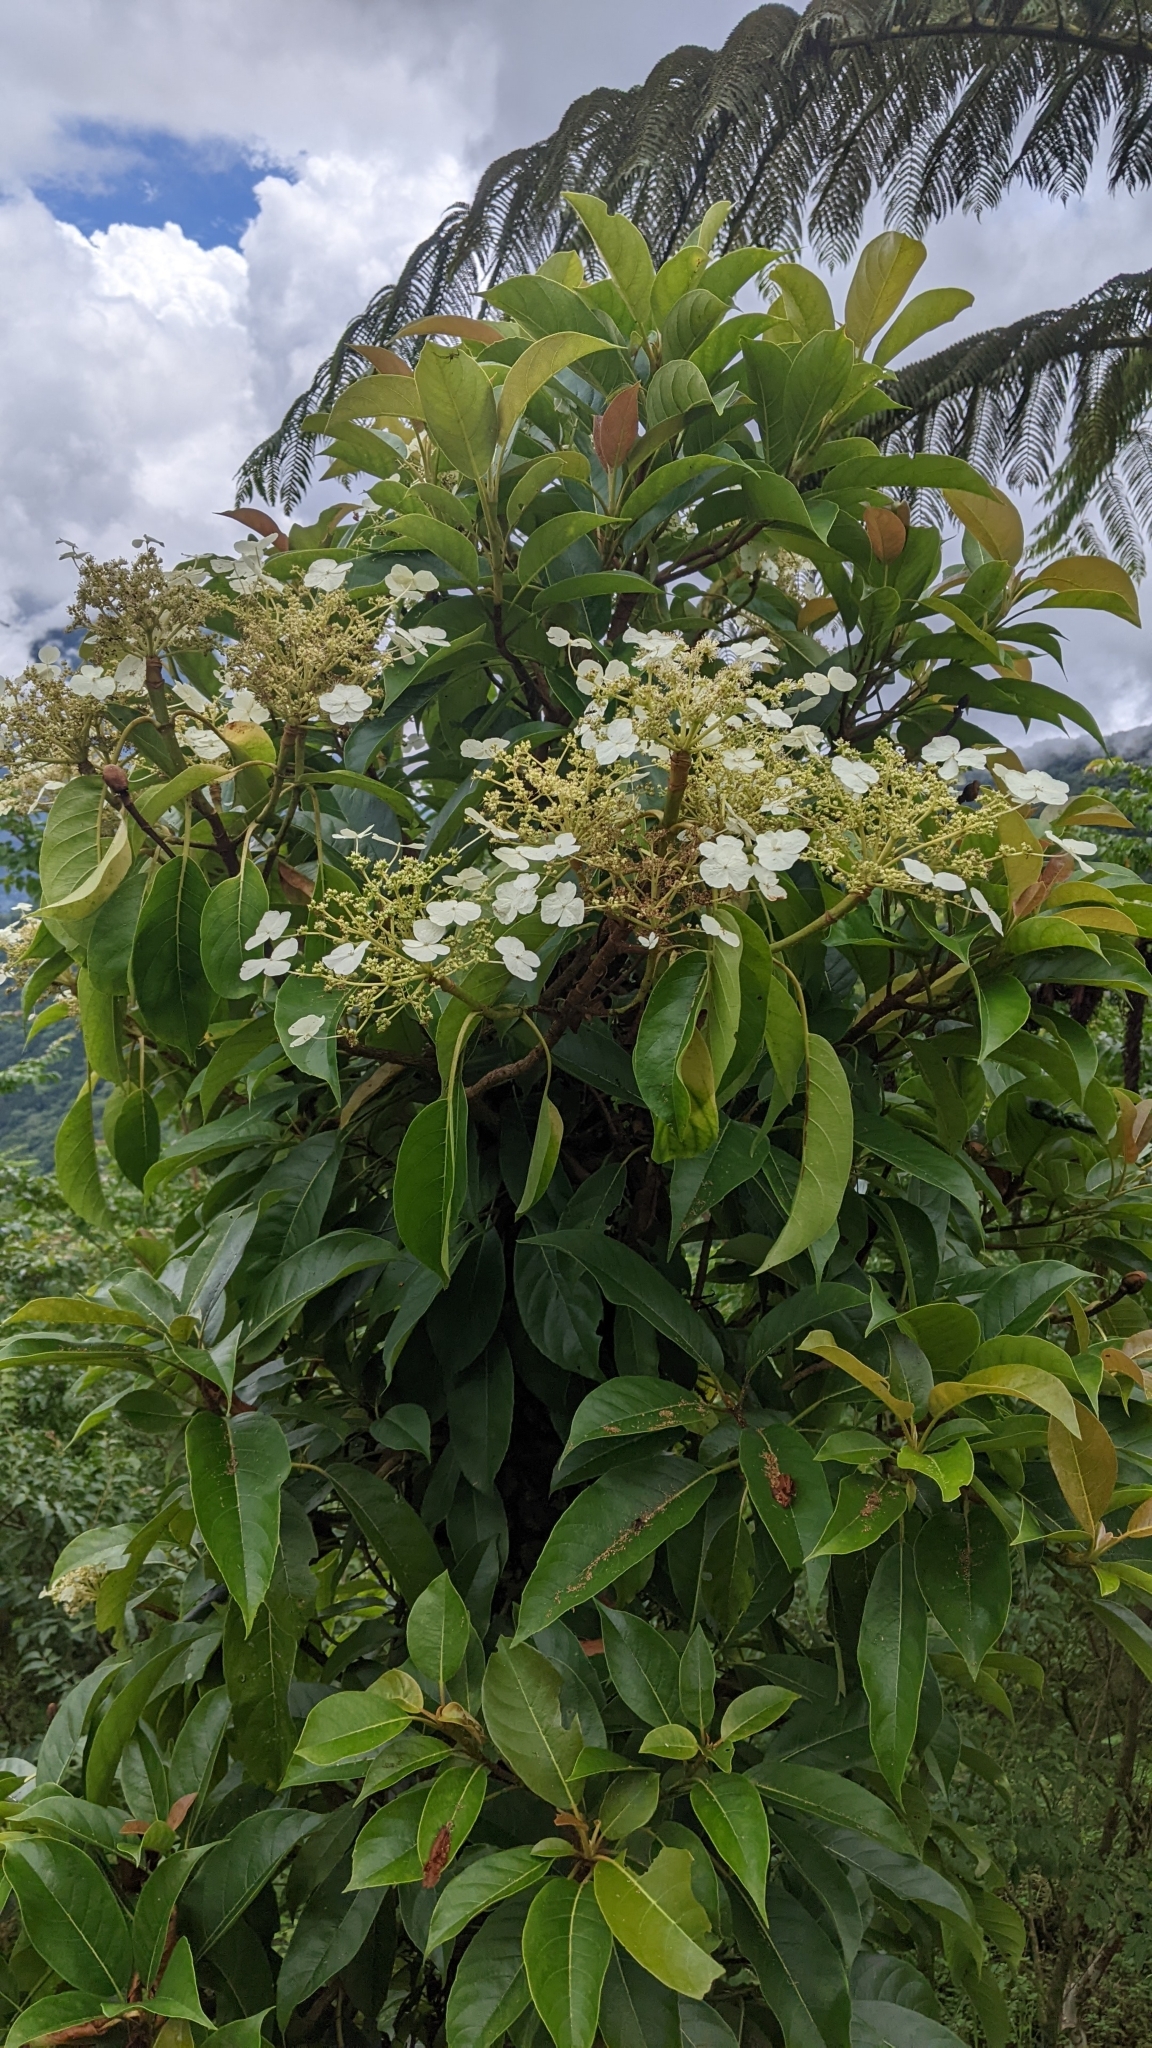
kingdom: Plantae
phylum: Tracheophyta
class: Magnoliopsida
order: Cornales
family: Hydrangeaceae
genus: Hydrangea
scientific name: Hydrangea integrifolia
